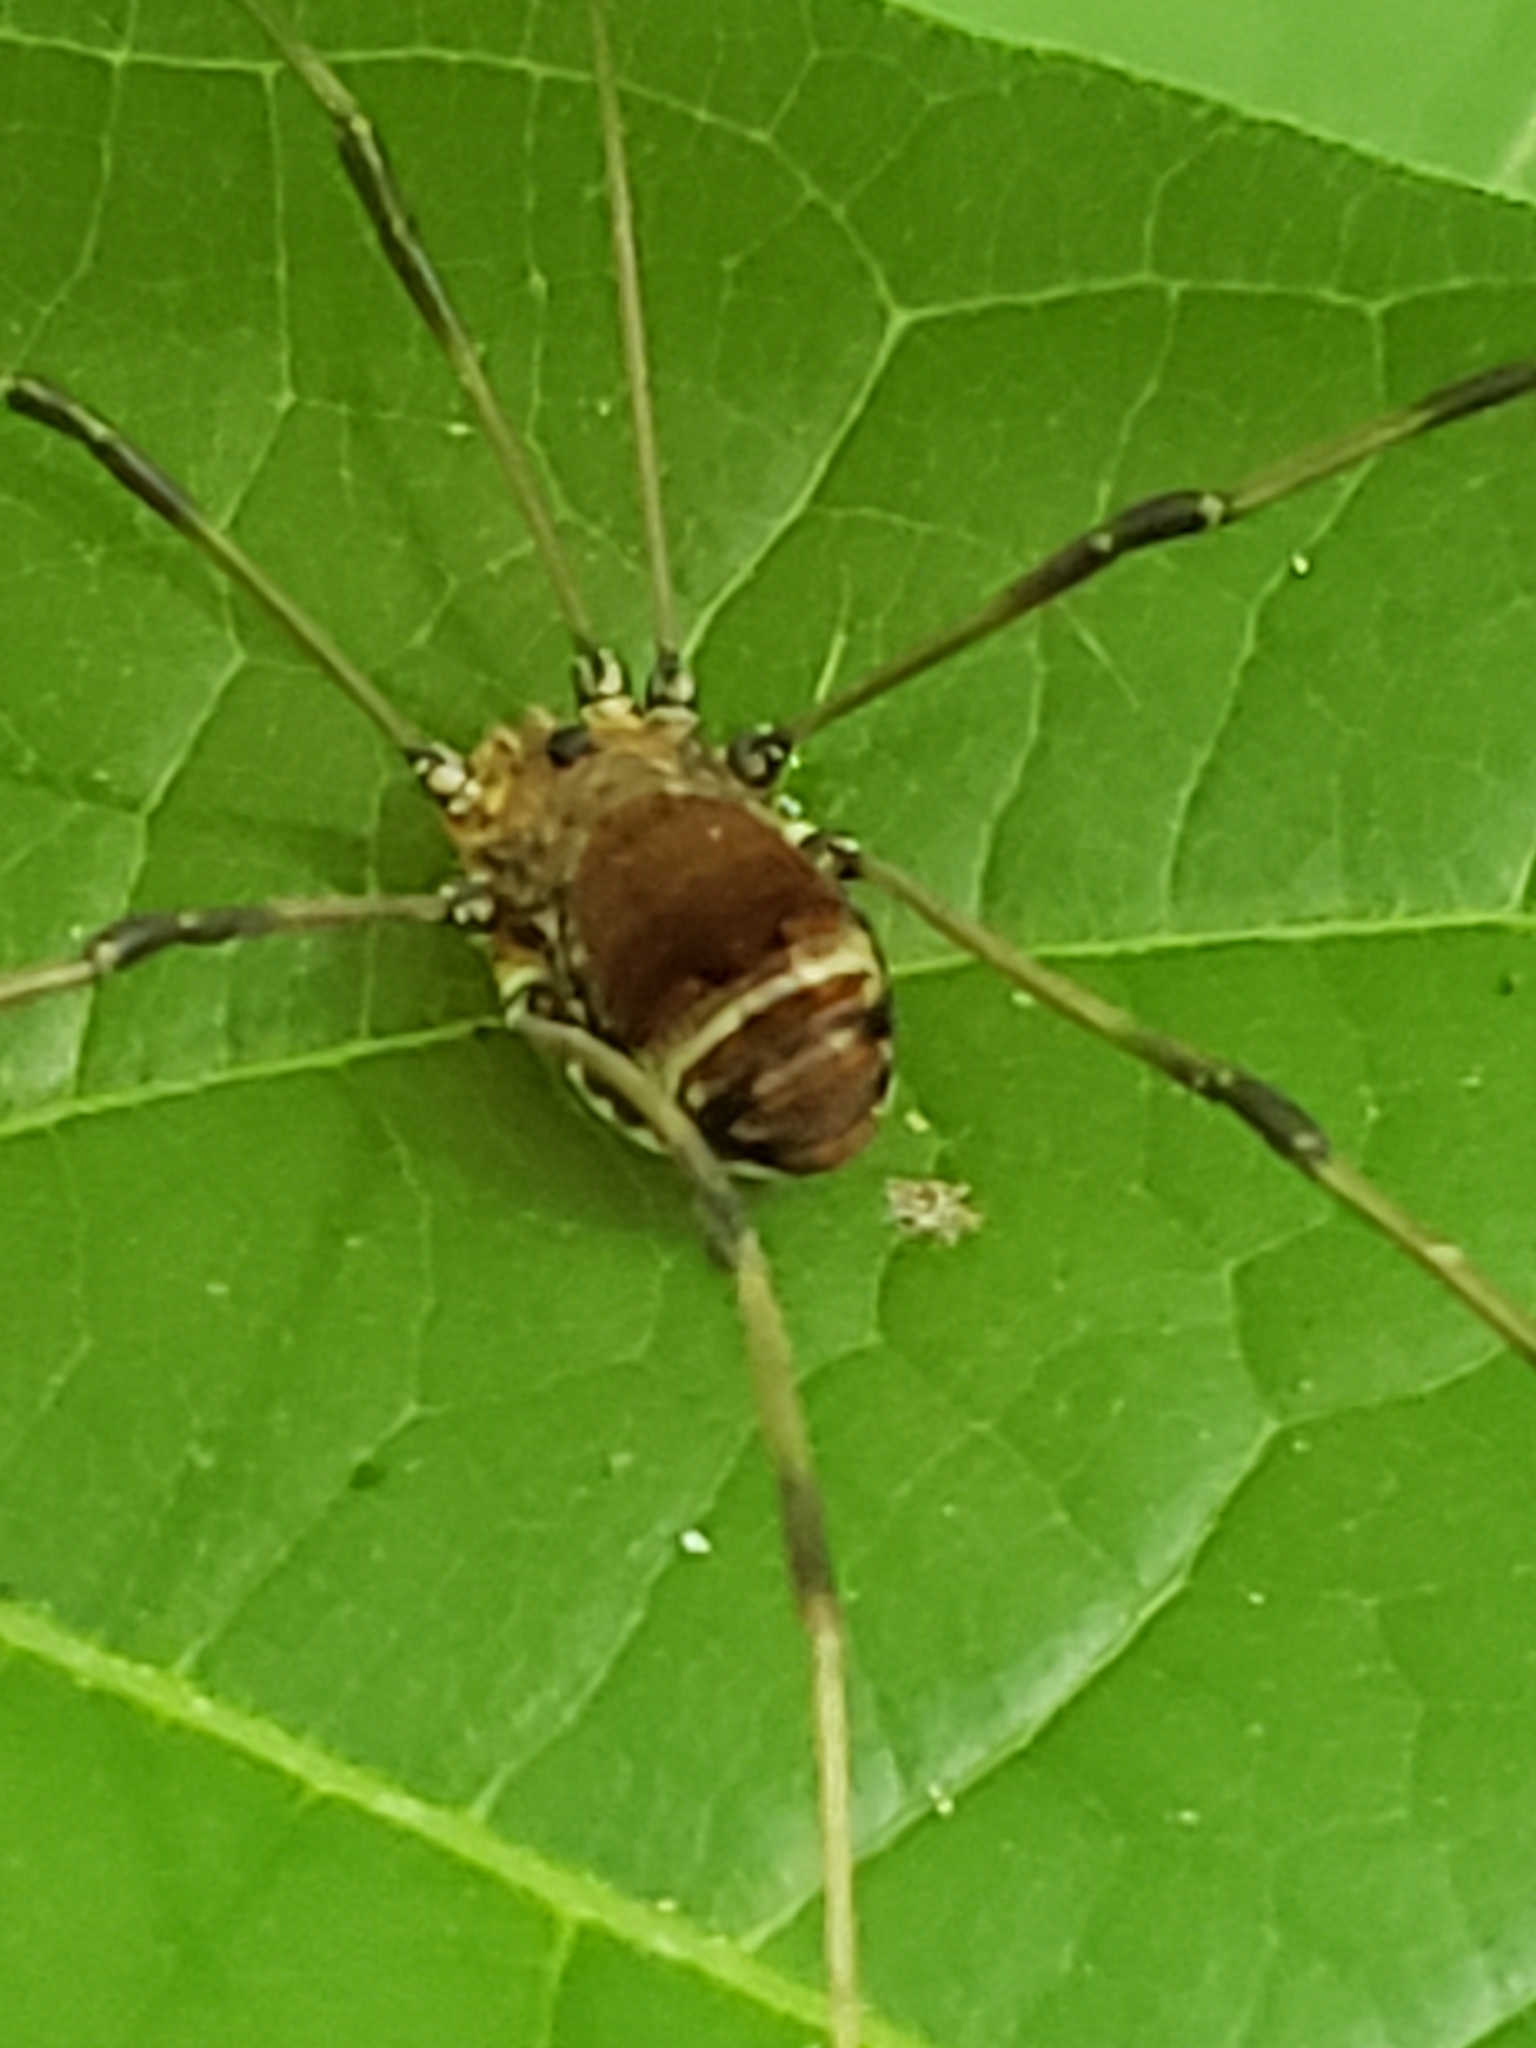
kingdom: Animalia
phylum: Arthropoda
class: Arachnida
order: Opiliones
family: Sclerosomatidae
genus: Leiobunum
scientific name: Leiobunum verrucosum
